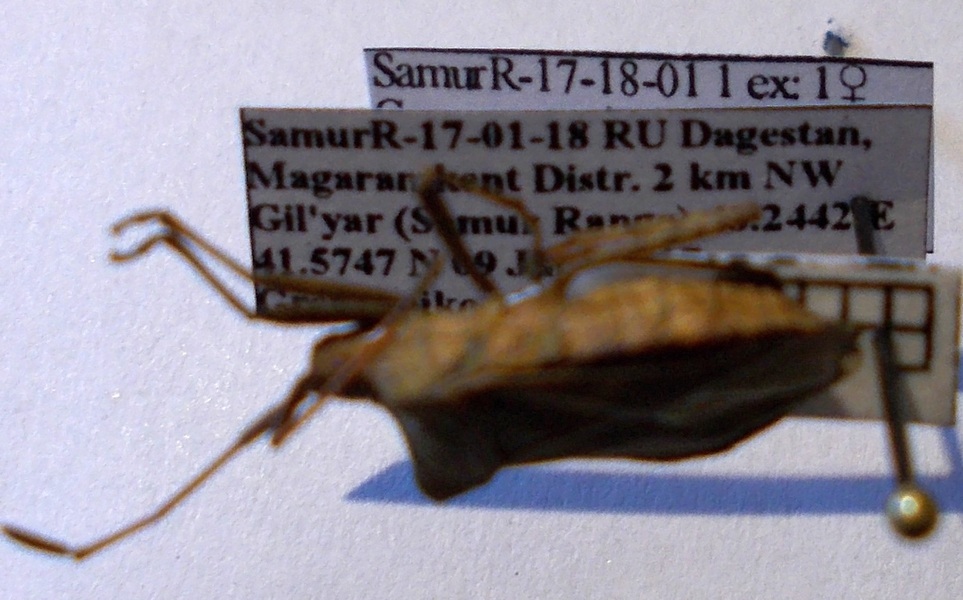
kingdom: Animalia
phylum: Arthropoda
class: Insecta
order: Hemiptera
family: Coreidae
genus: Coreus
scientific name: Coreus marginatus
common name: Dock bug
